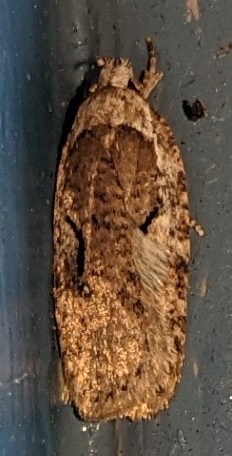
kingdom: Animalia
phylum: Arthropoda
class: Insecta
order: Lepidoptera
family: Depressariidae
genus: Agonopterix
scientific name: Agonopterix curvilineella
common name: Curved-line agonopterix moth
